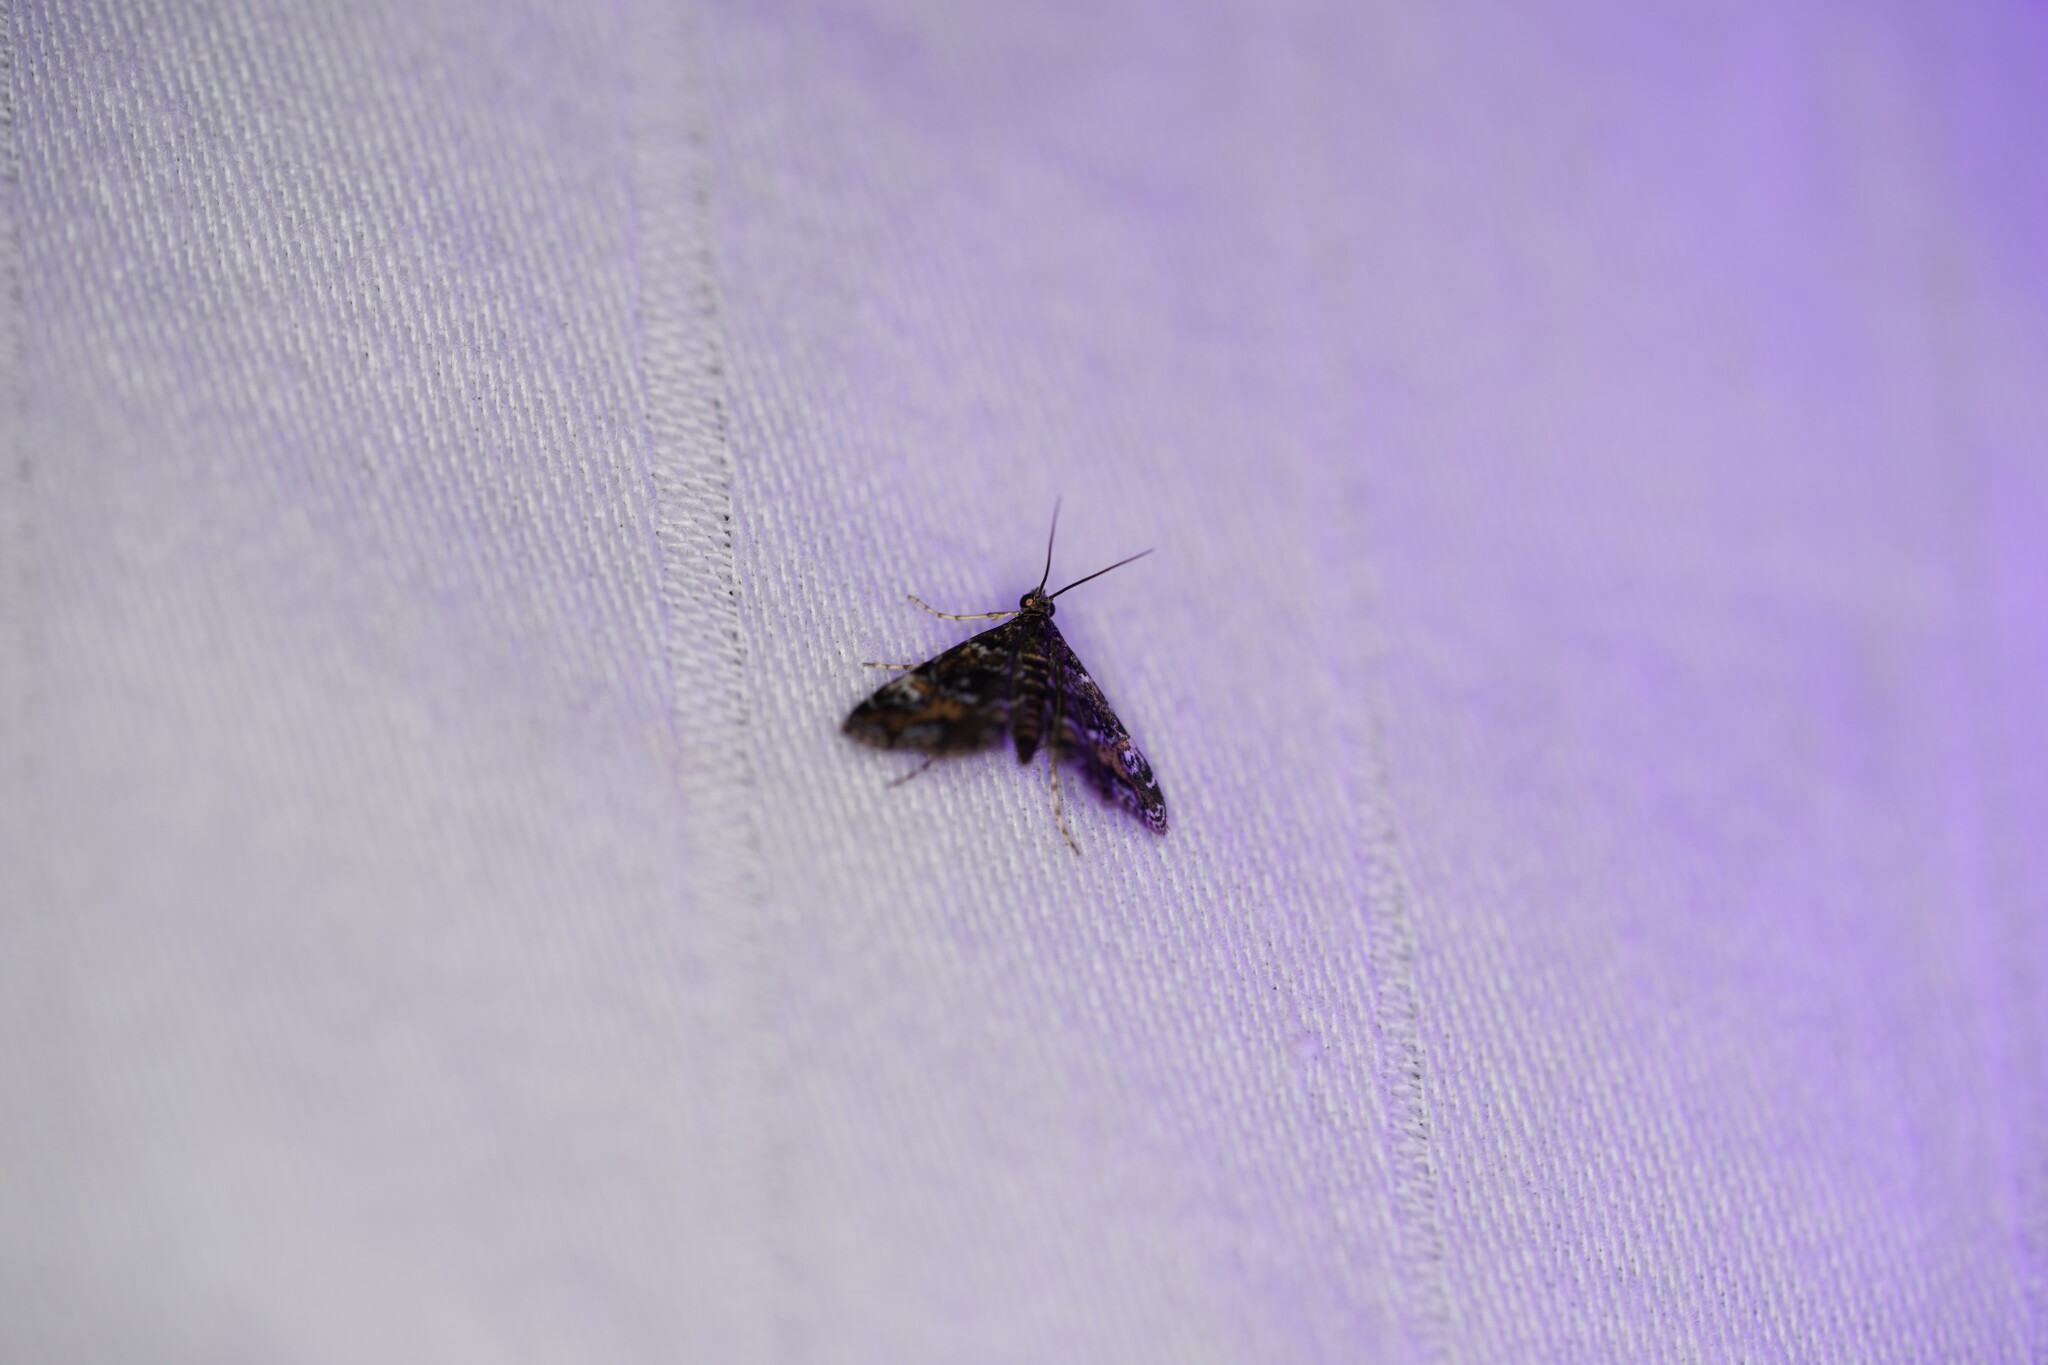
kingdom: Animalia
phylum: Arthropoda
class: Insecta
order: Lepidoptera
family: Crambidae
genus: Elophila
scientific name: Elophila obliteralis
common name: Waterlily leafcutter moth
